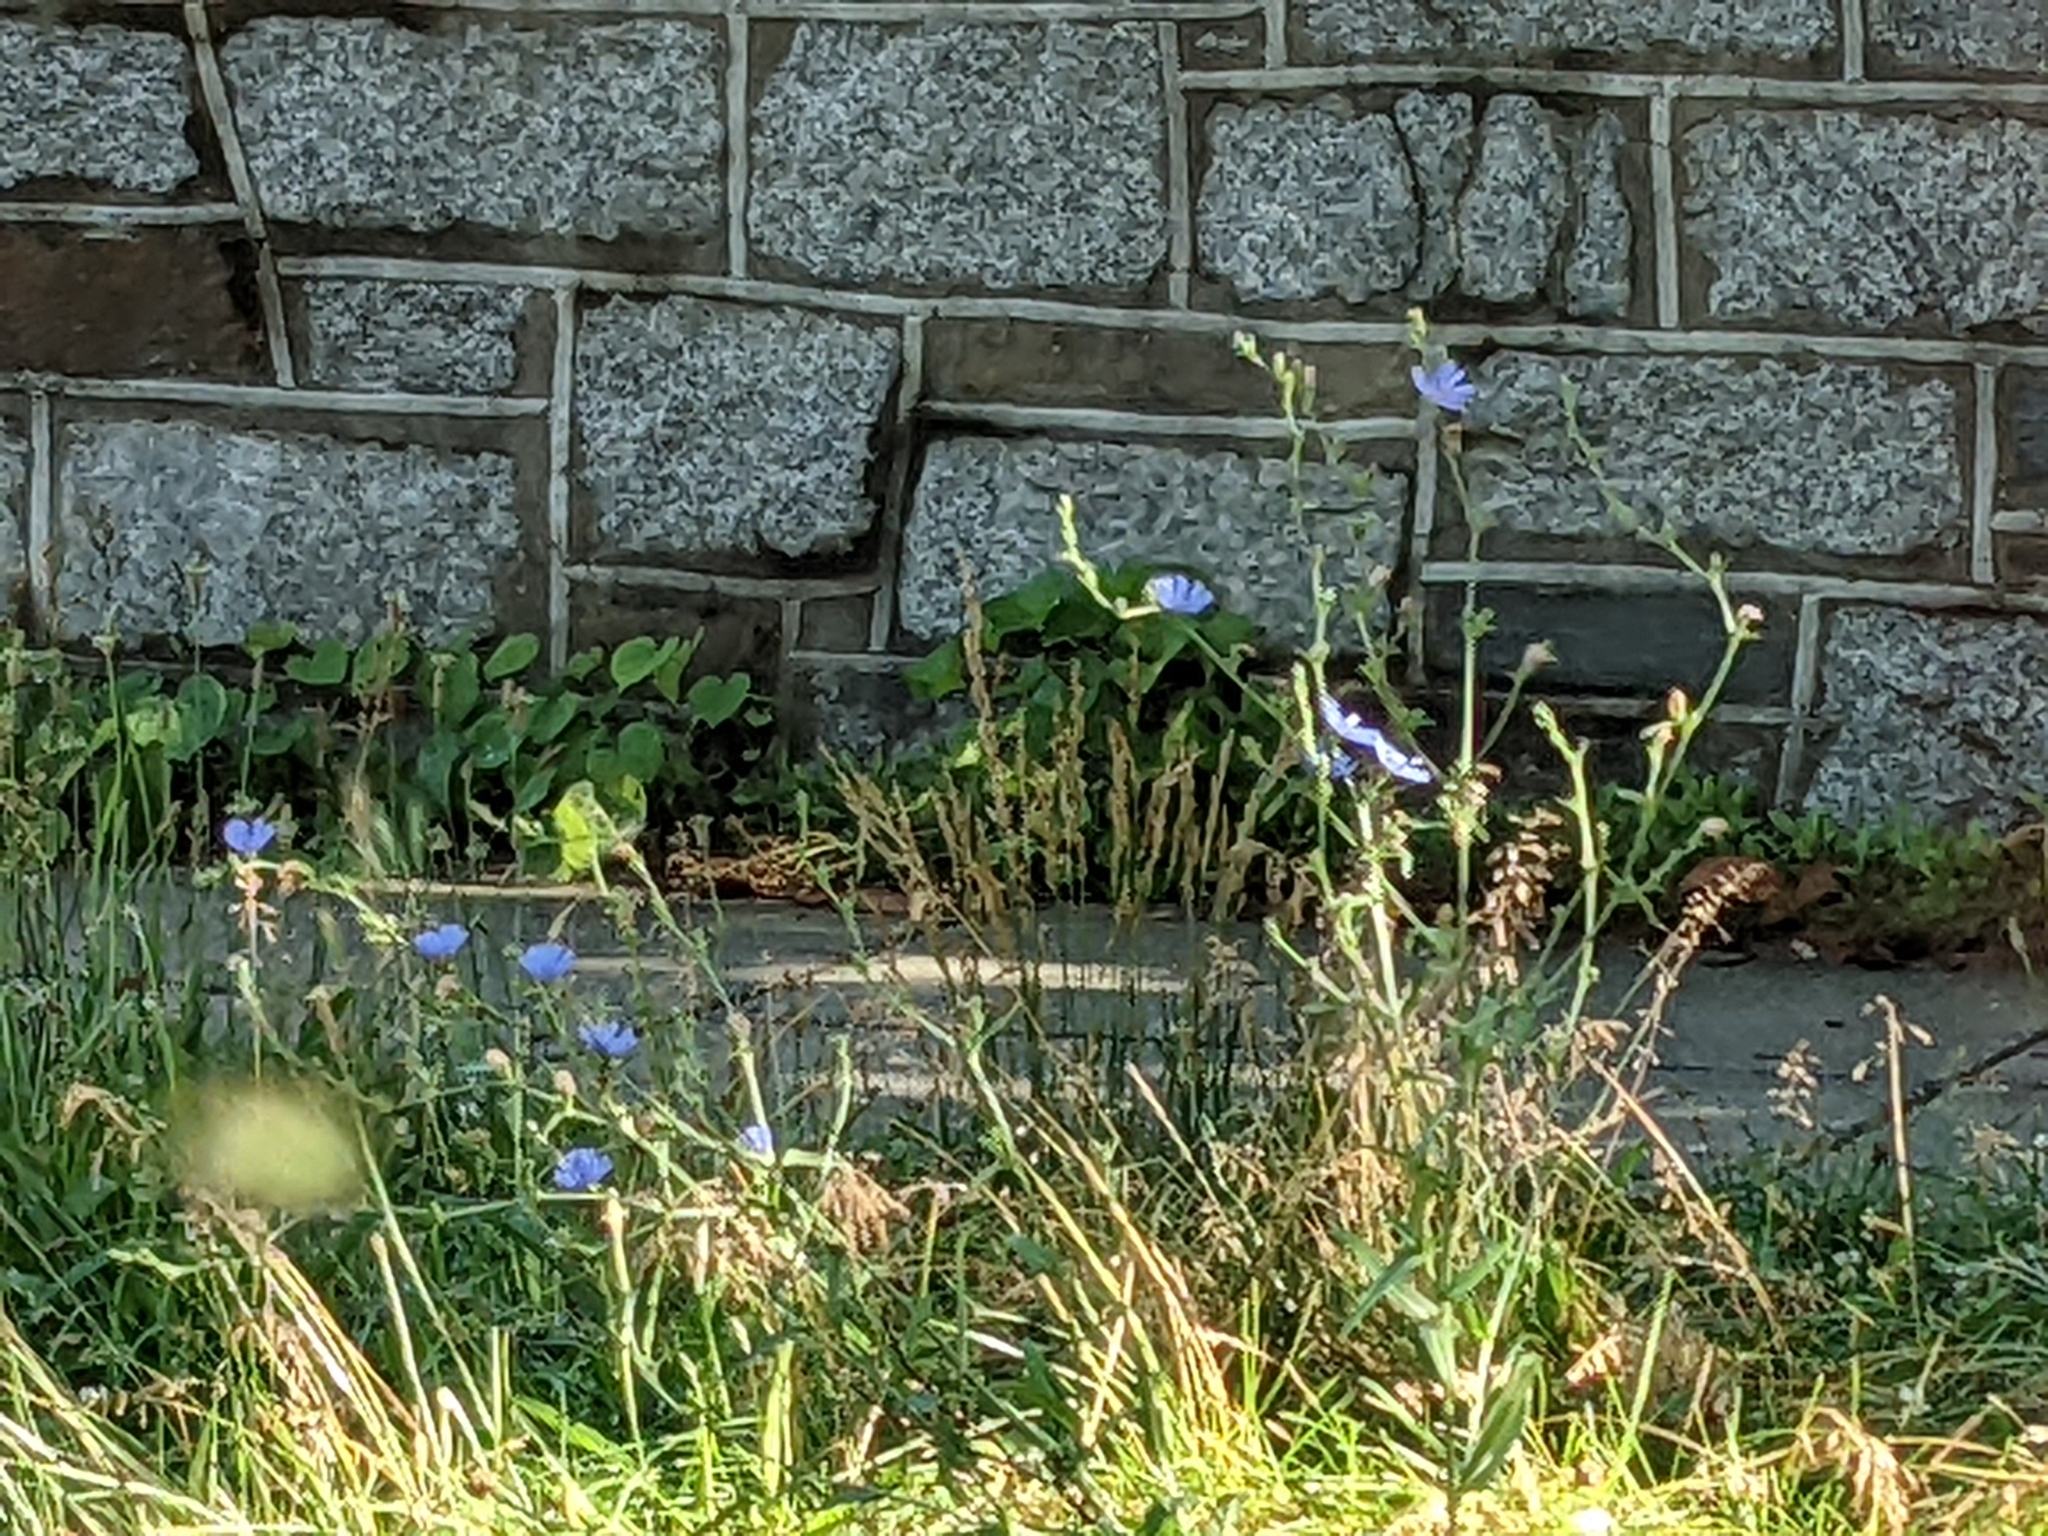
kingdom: Plantae
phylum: Tracheophyta
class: Magnoliopsida
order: Asterales
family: Asteraceae
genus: Cichorium
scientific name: Cichorium intybus
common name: Chicory
